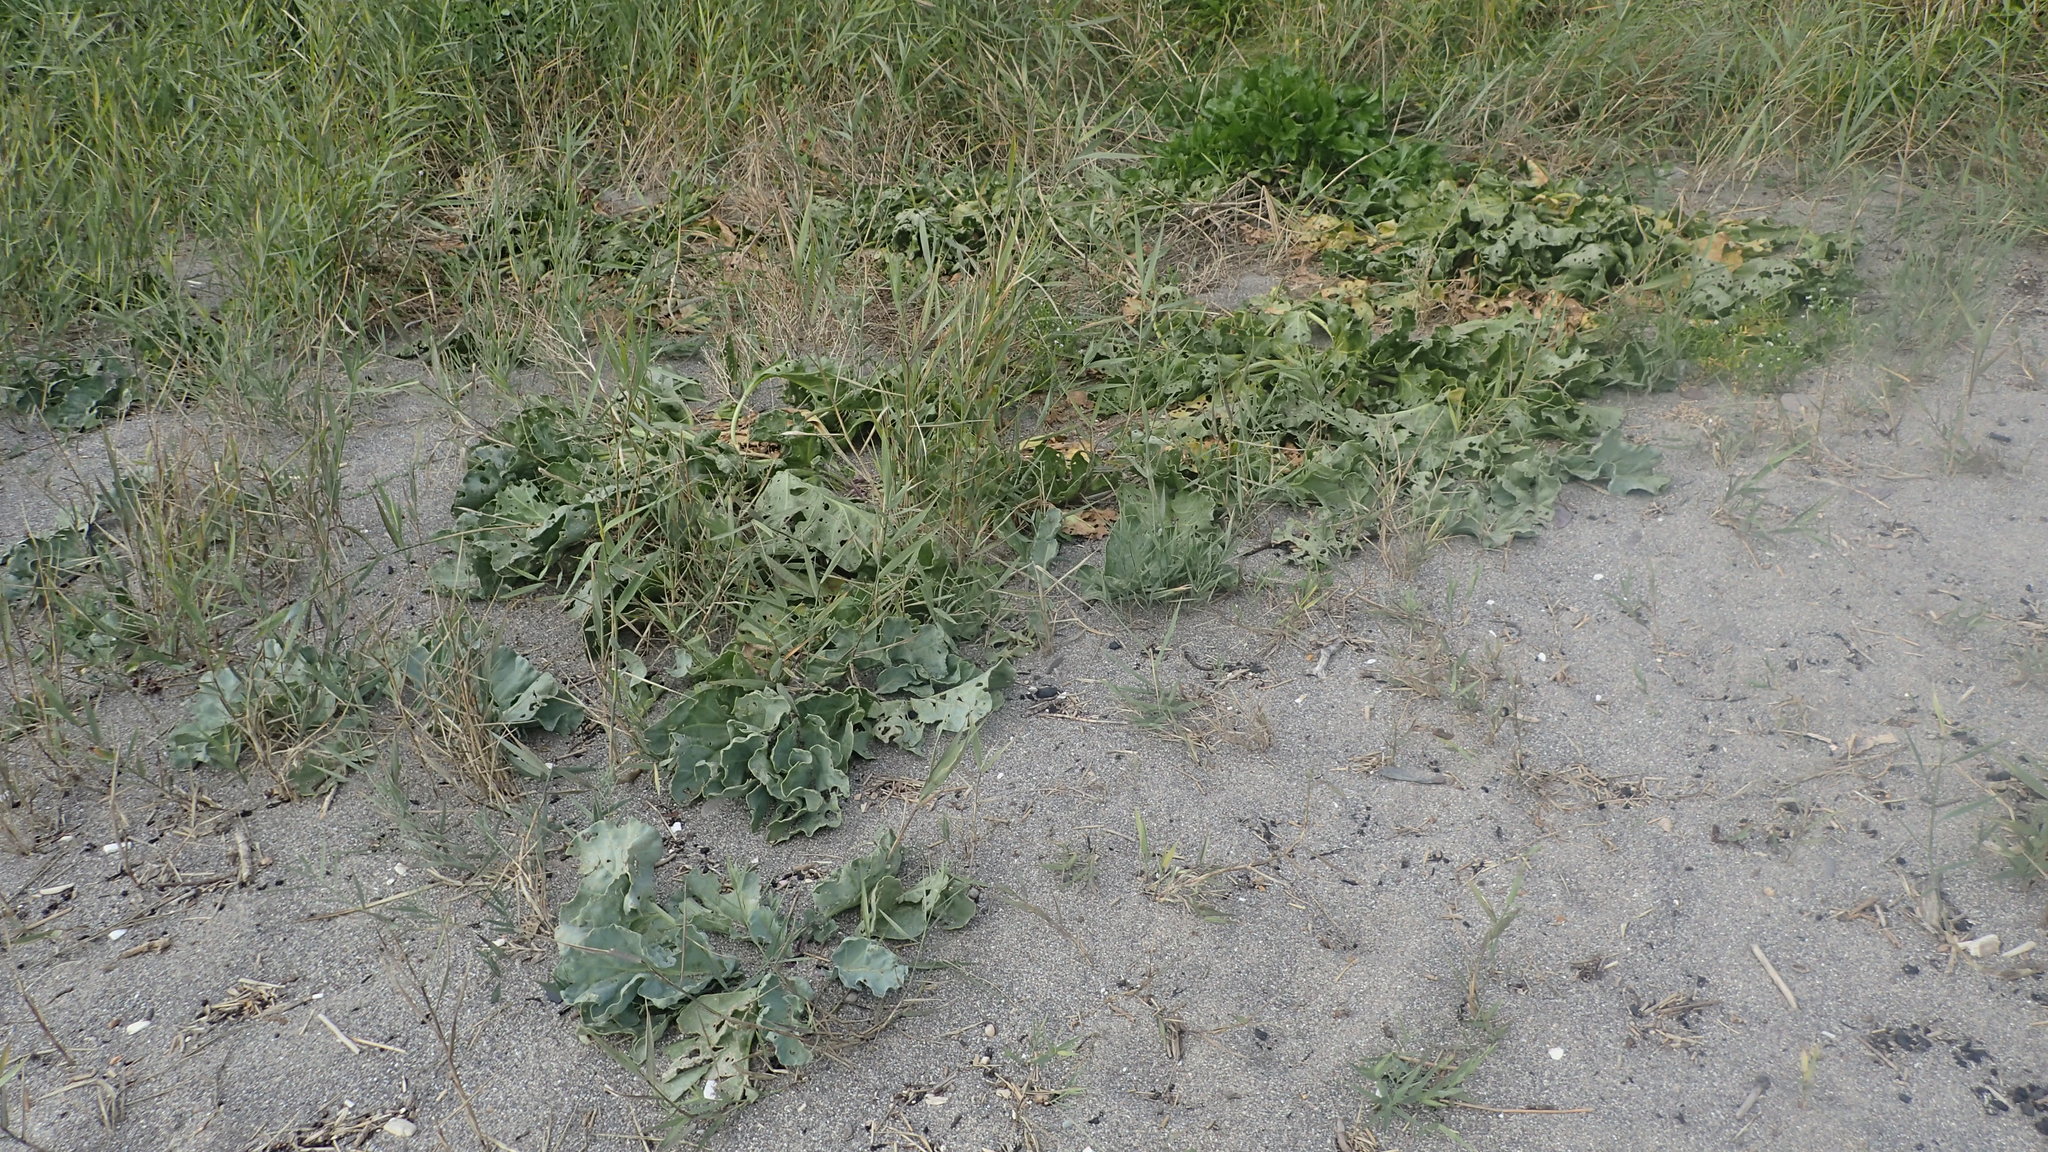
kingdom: Plantae
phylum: Tracheophyta
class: Magnoliopsida
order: Brassicales
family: Brassicaceae
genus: Crambe
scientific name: Crambe maritima
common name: Sea-kale
